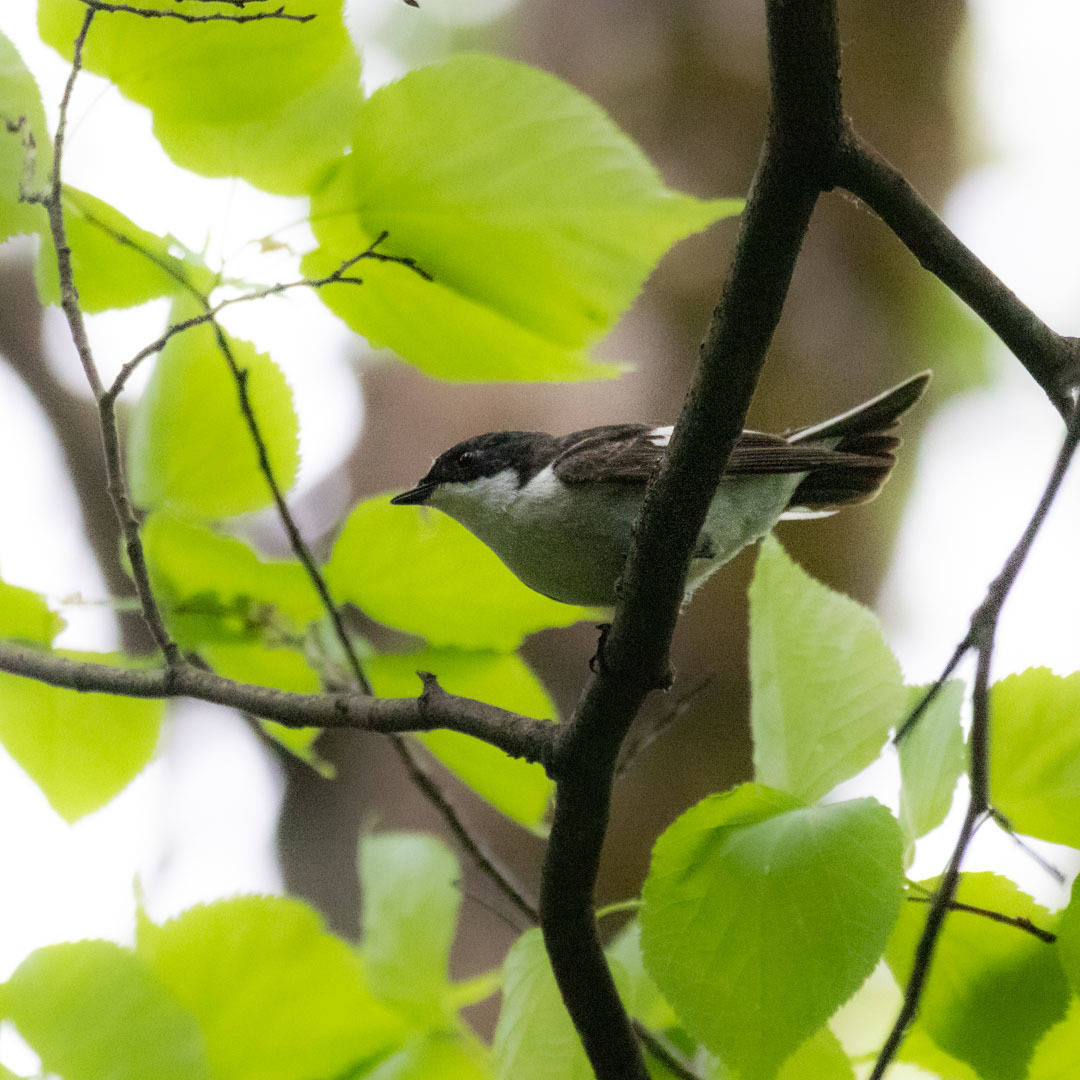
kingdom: Animalia
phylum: Chordata
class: Aves
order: Passeriformes
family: Muscicapidae
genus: Ficedula
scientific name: Ficedula hypoleuca
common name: European pied flycatcher
